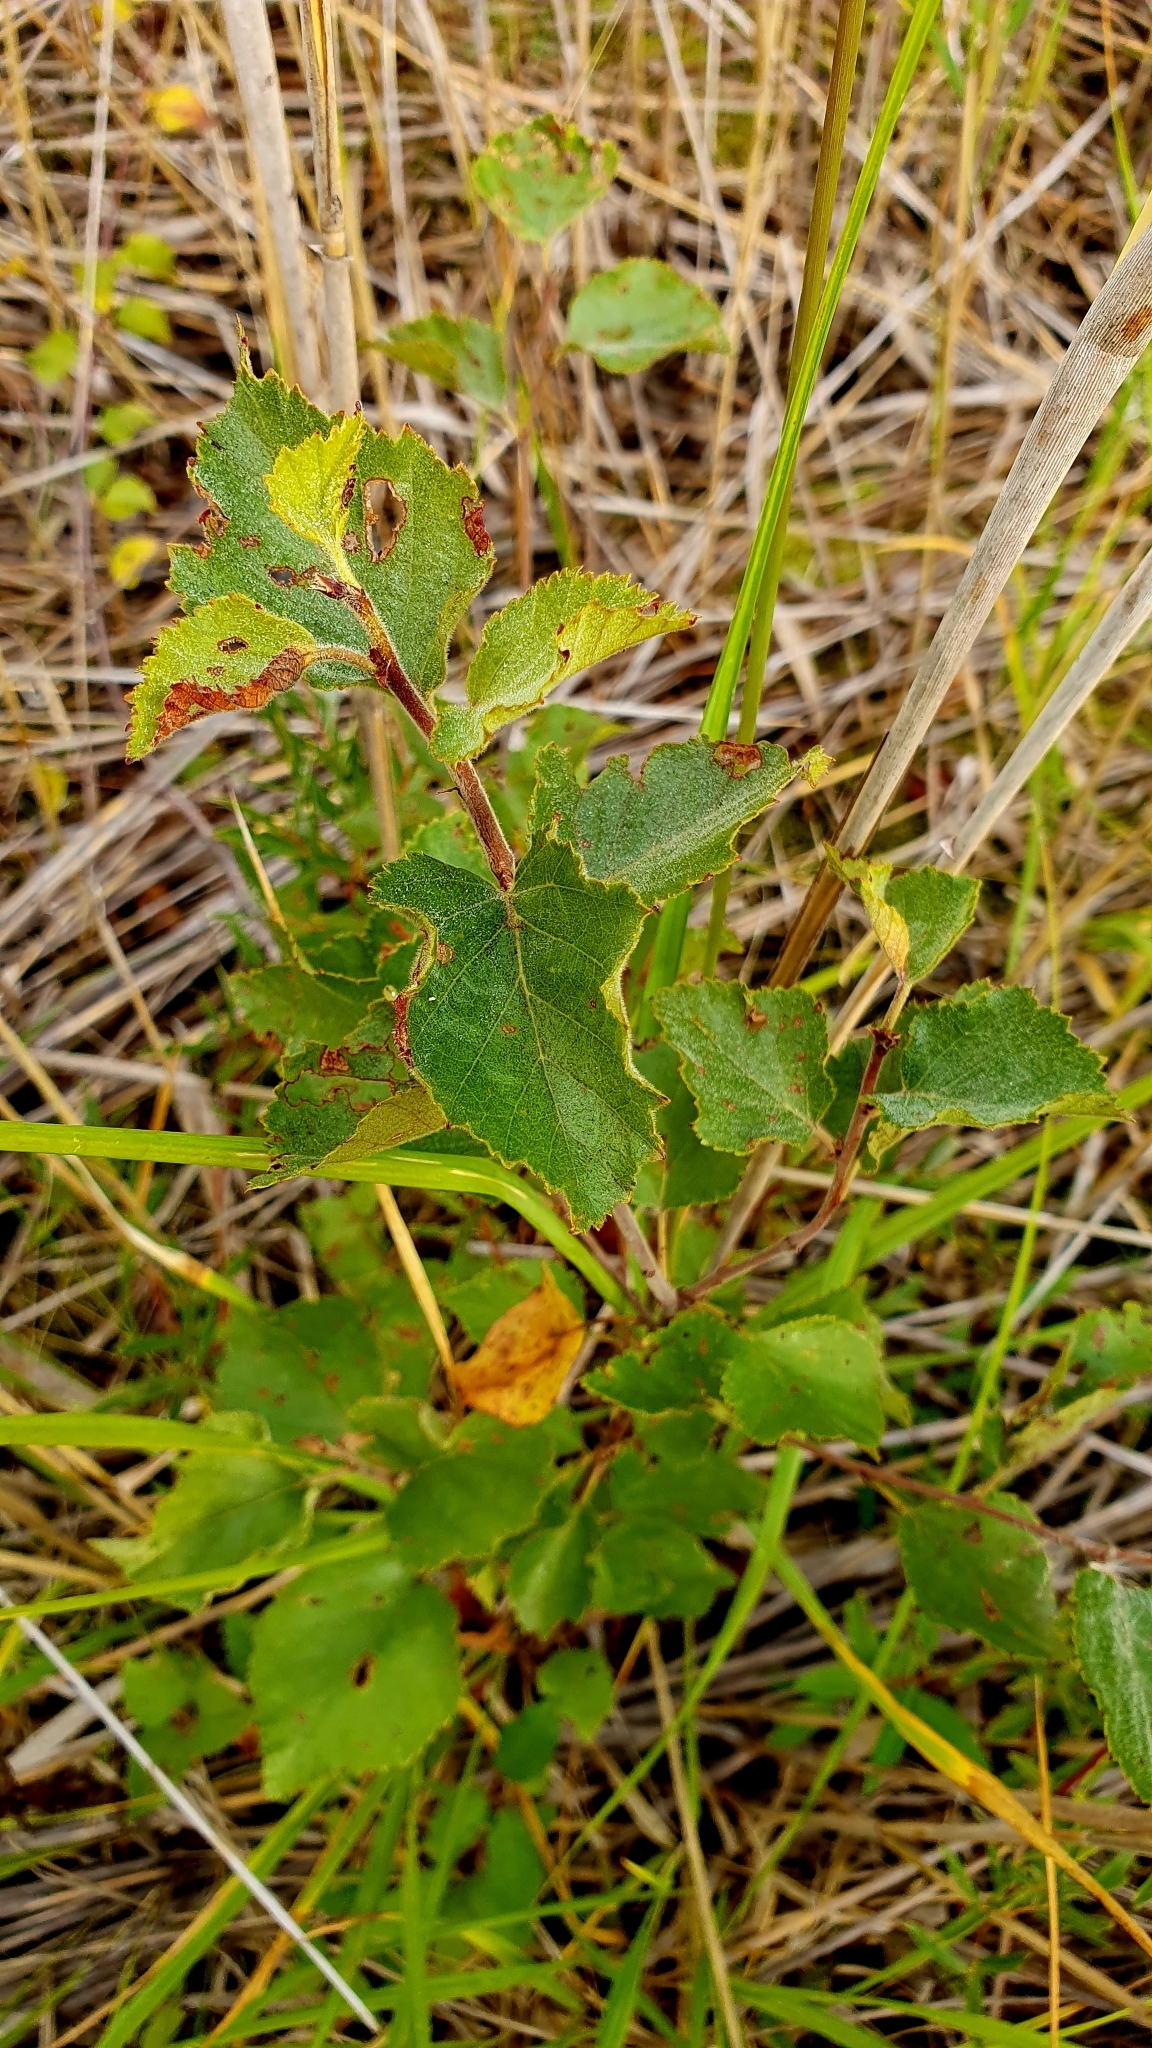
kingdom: Plantae
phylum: Tracheophyta
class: Magnoliopsida
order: Fagales
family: Betulaceae
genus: Betula
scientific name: Betula pubescens
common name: Downy birch
